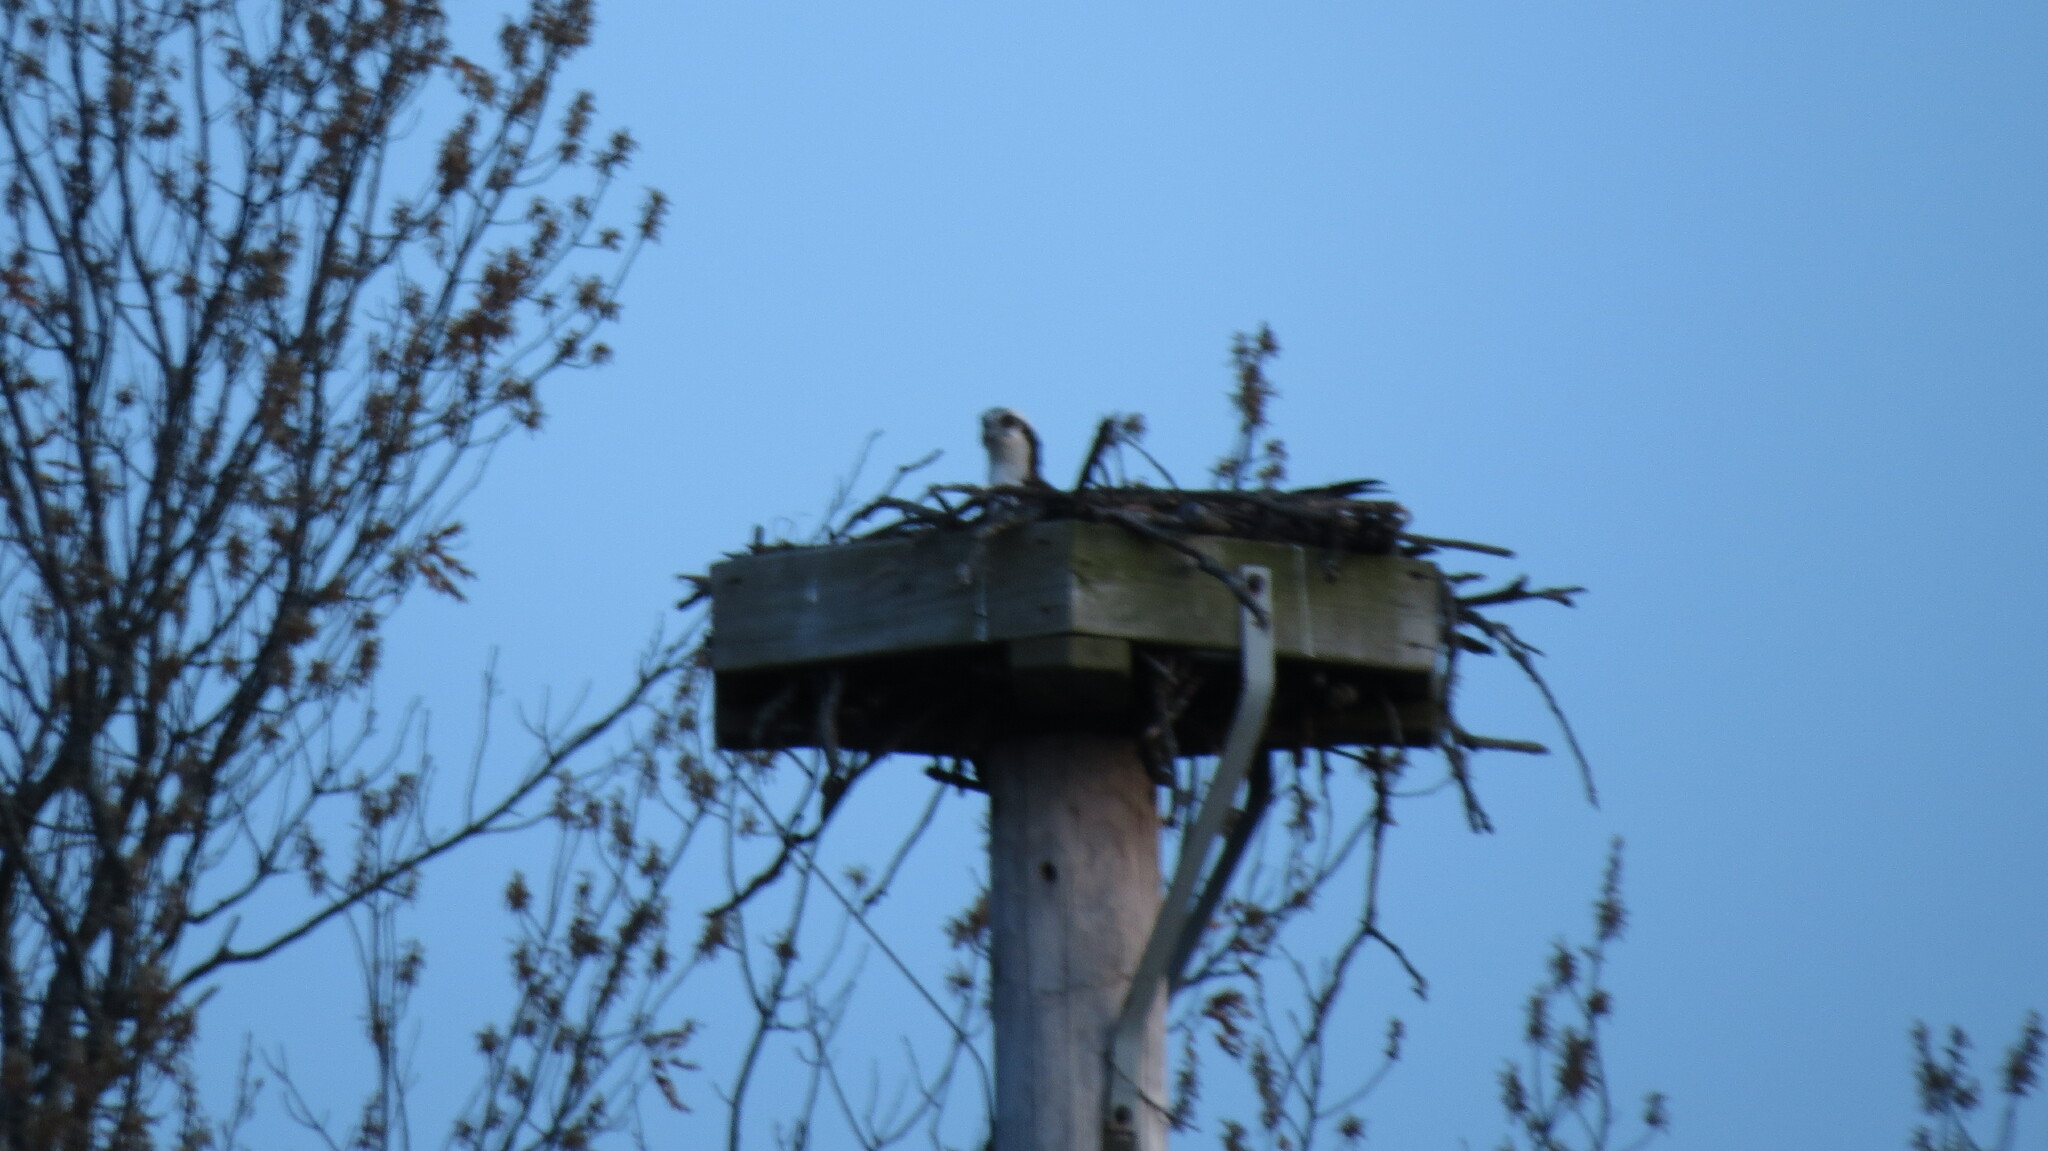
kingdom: Animalia
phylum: Chordata
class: Aves
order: Accipitriformes
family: Pandionidae
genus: Pandion
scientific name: Pandion haliaetus
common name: Osprey
